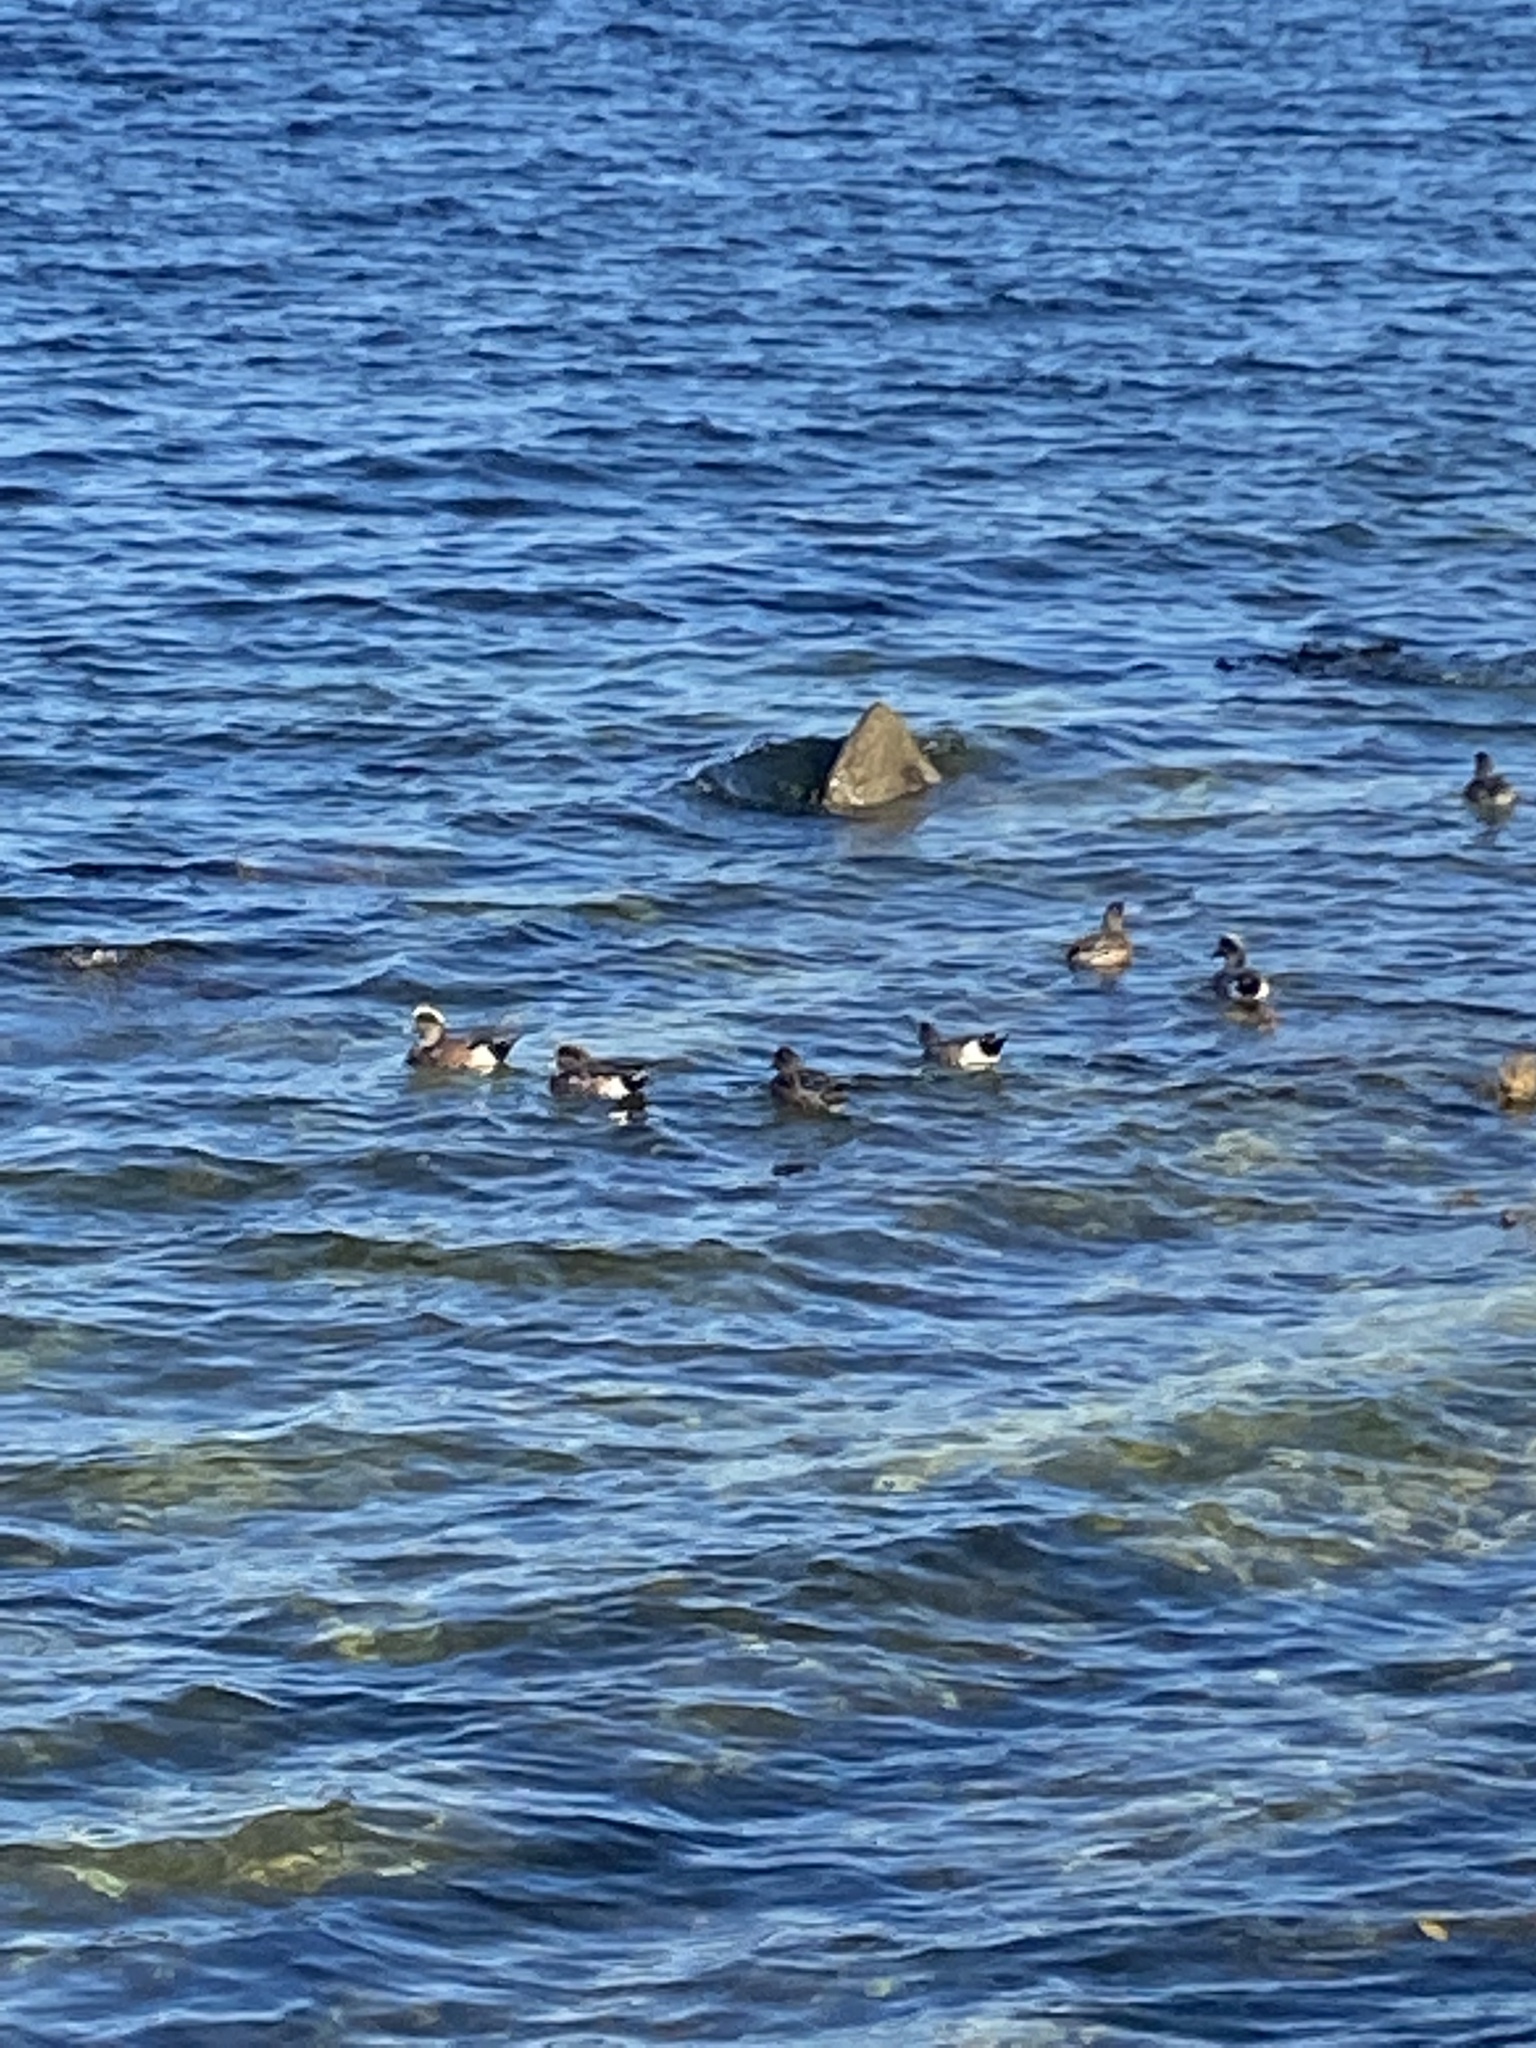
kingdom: Animalia
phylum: Chordata
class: Aves
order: Anseriformes
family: Anatidae
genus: Mareca
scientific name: Mareca americana
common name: American wigeon
